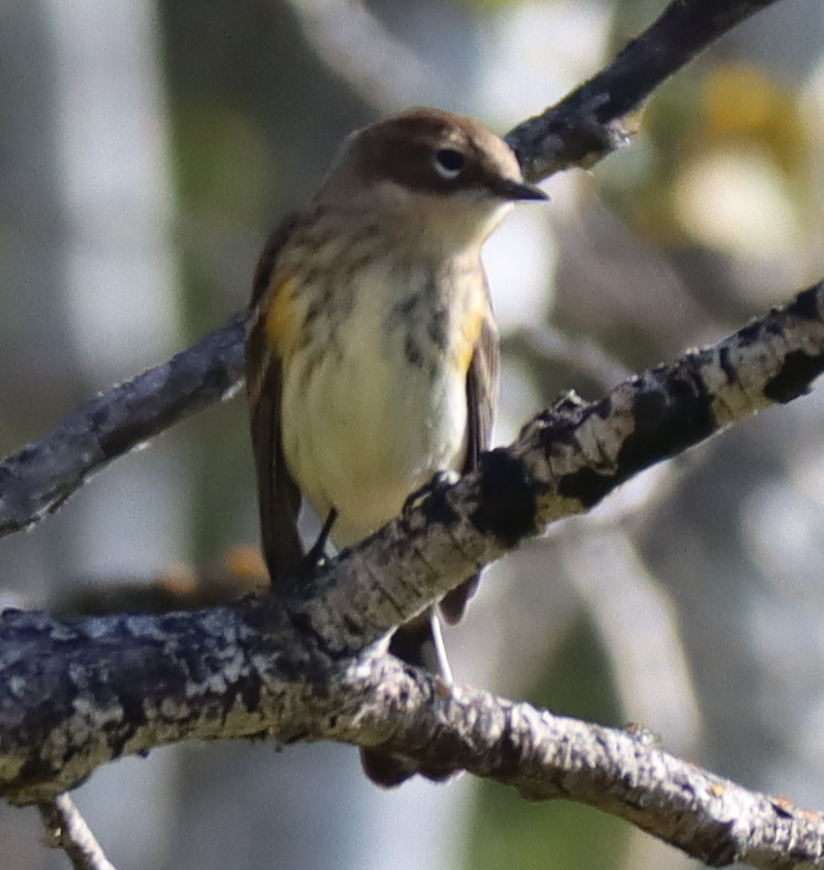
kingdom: Animalia
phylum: Chordata
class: Aves
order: Passeriformes
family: Parulidae
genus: Setophaga
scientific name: Setophaga coronata
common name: Myrtle warbler
